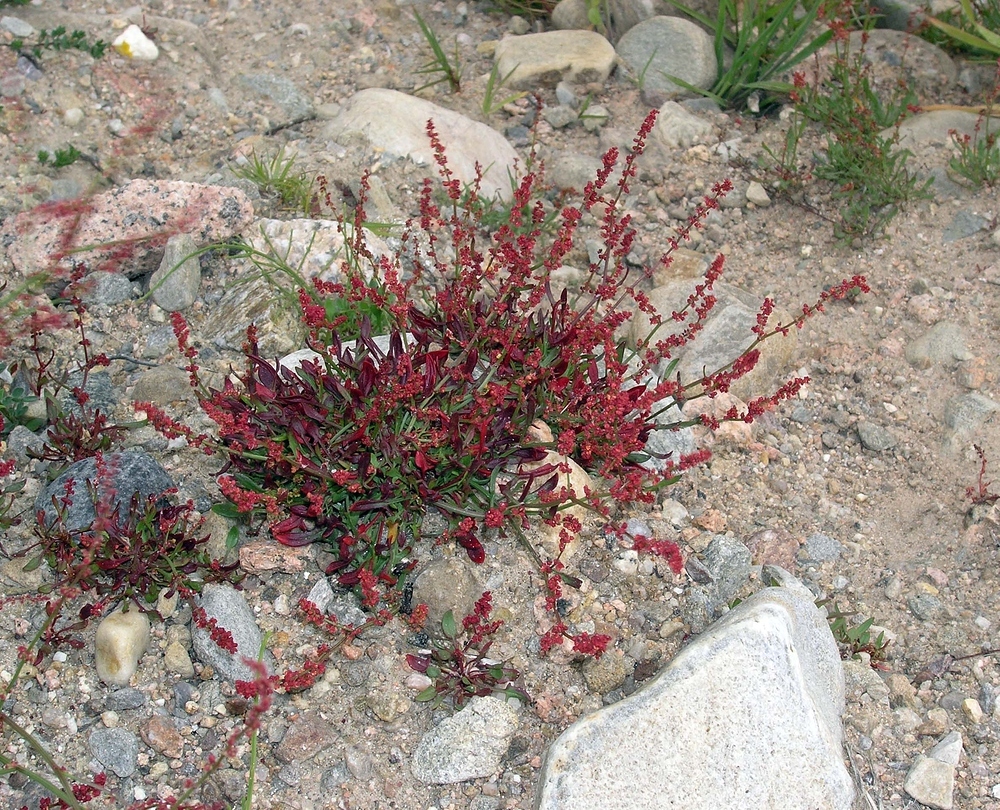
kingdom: Plantae
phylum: Tracheophyta
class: Magnoliopsida
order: Caryophyllales
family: Polygonaceae
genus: Rumex
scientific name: Rumex acetosella
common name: Common sheep sorrel
